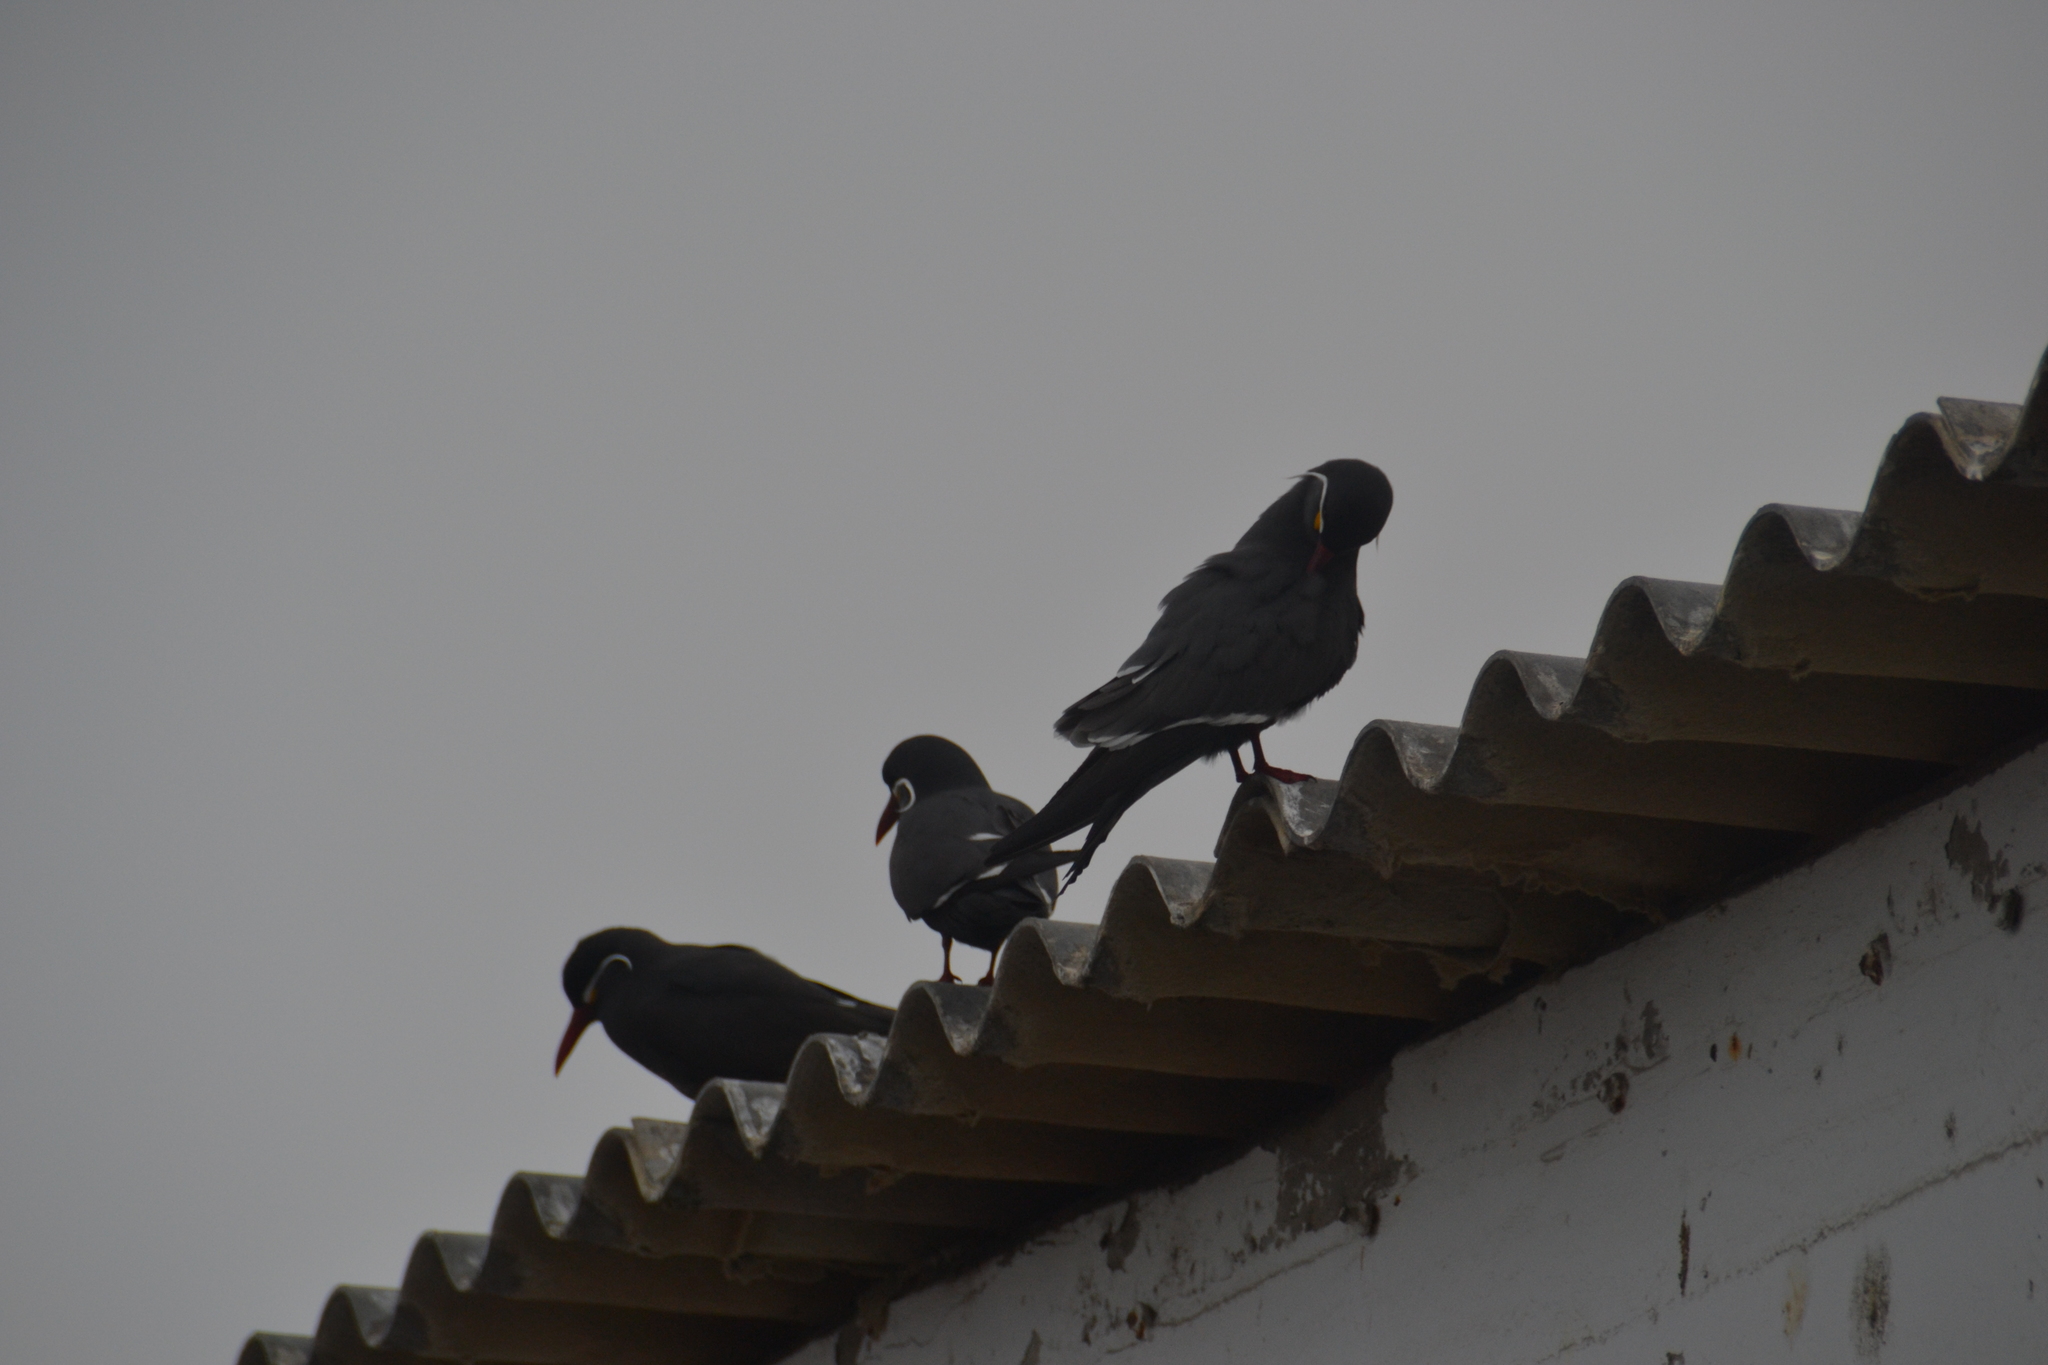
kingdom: Animalia
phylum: Chordata
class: Aves
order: Charadriiformes
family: Laridae
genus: Larosterna
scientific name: Larosterna inca
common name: Inca tern
